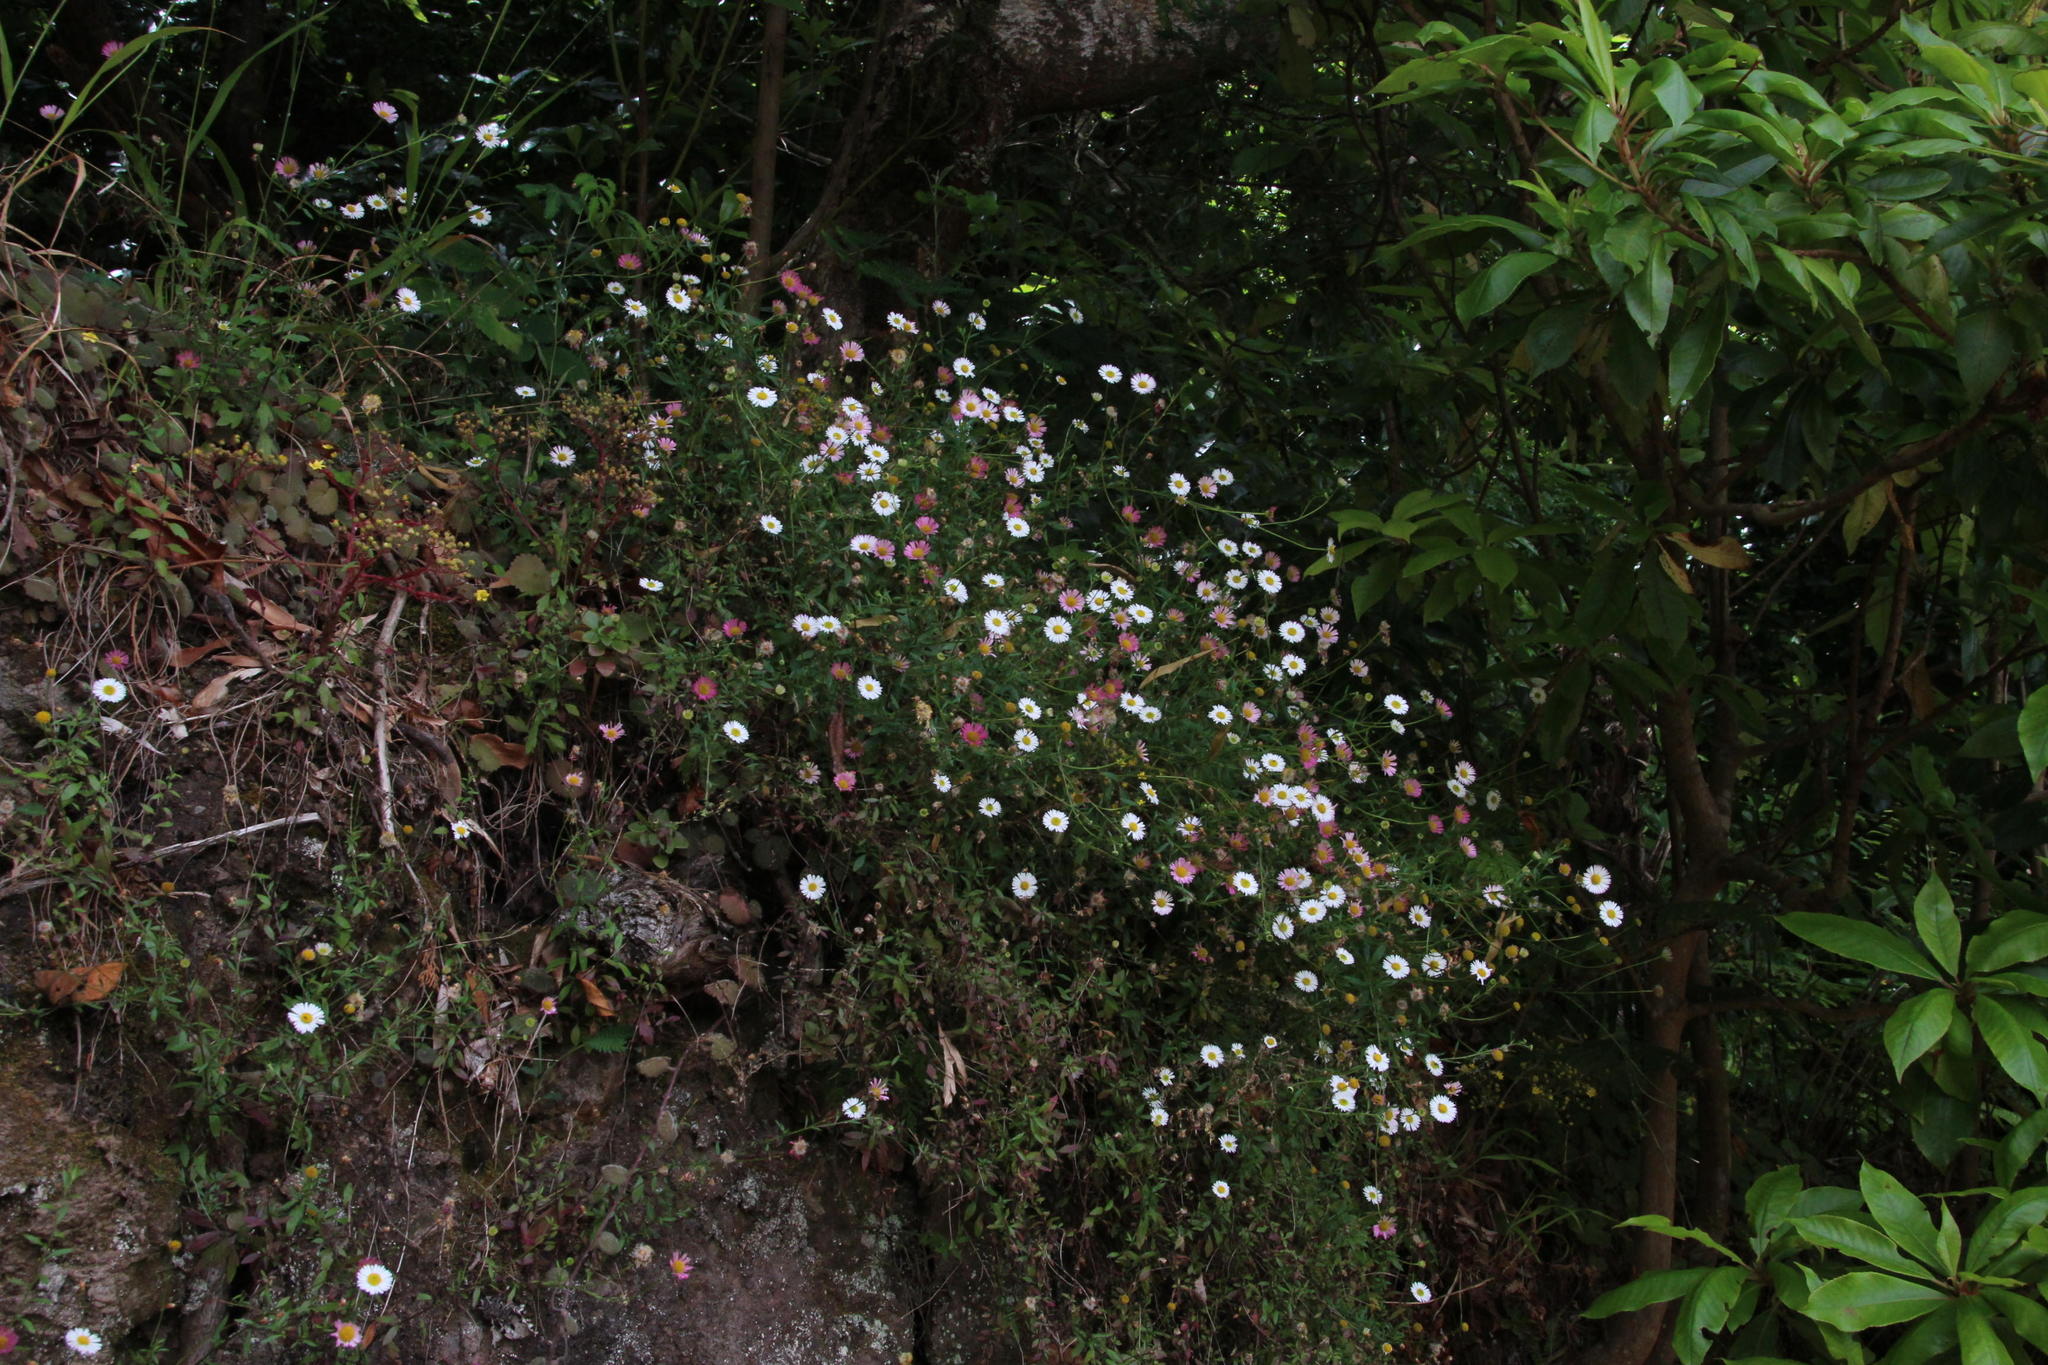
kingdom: Plantae
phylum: Tracheophyta
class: Magnoliopsida
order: Asterales
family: Asteraceae
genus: Erigeron
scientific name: Erigeron karvinskianus
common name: Mexican fleabane
